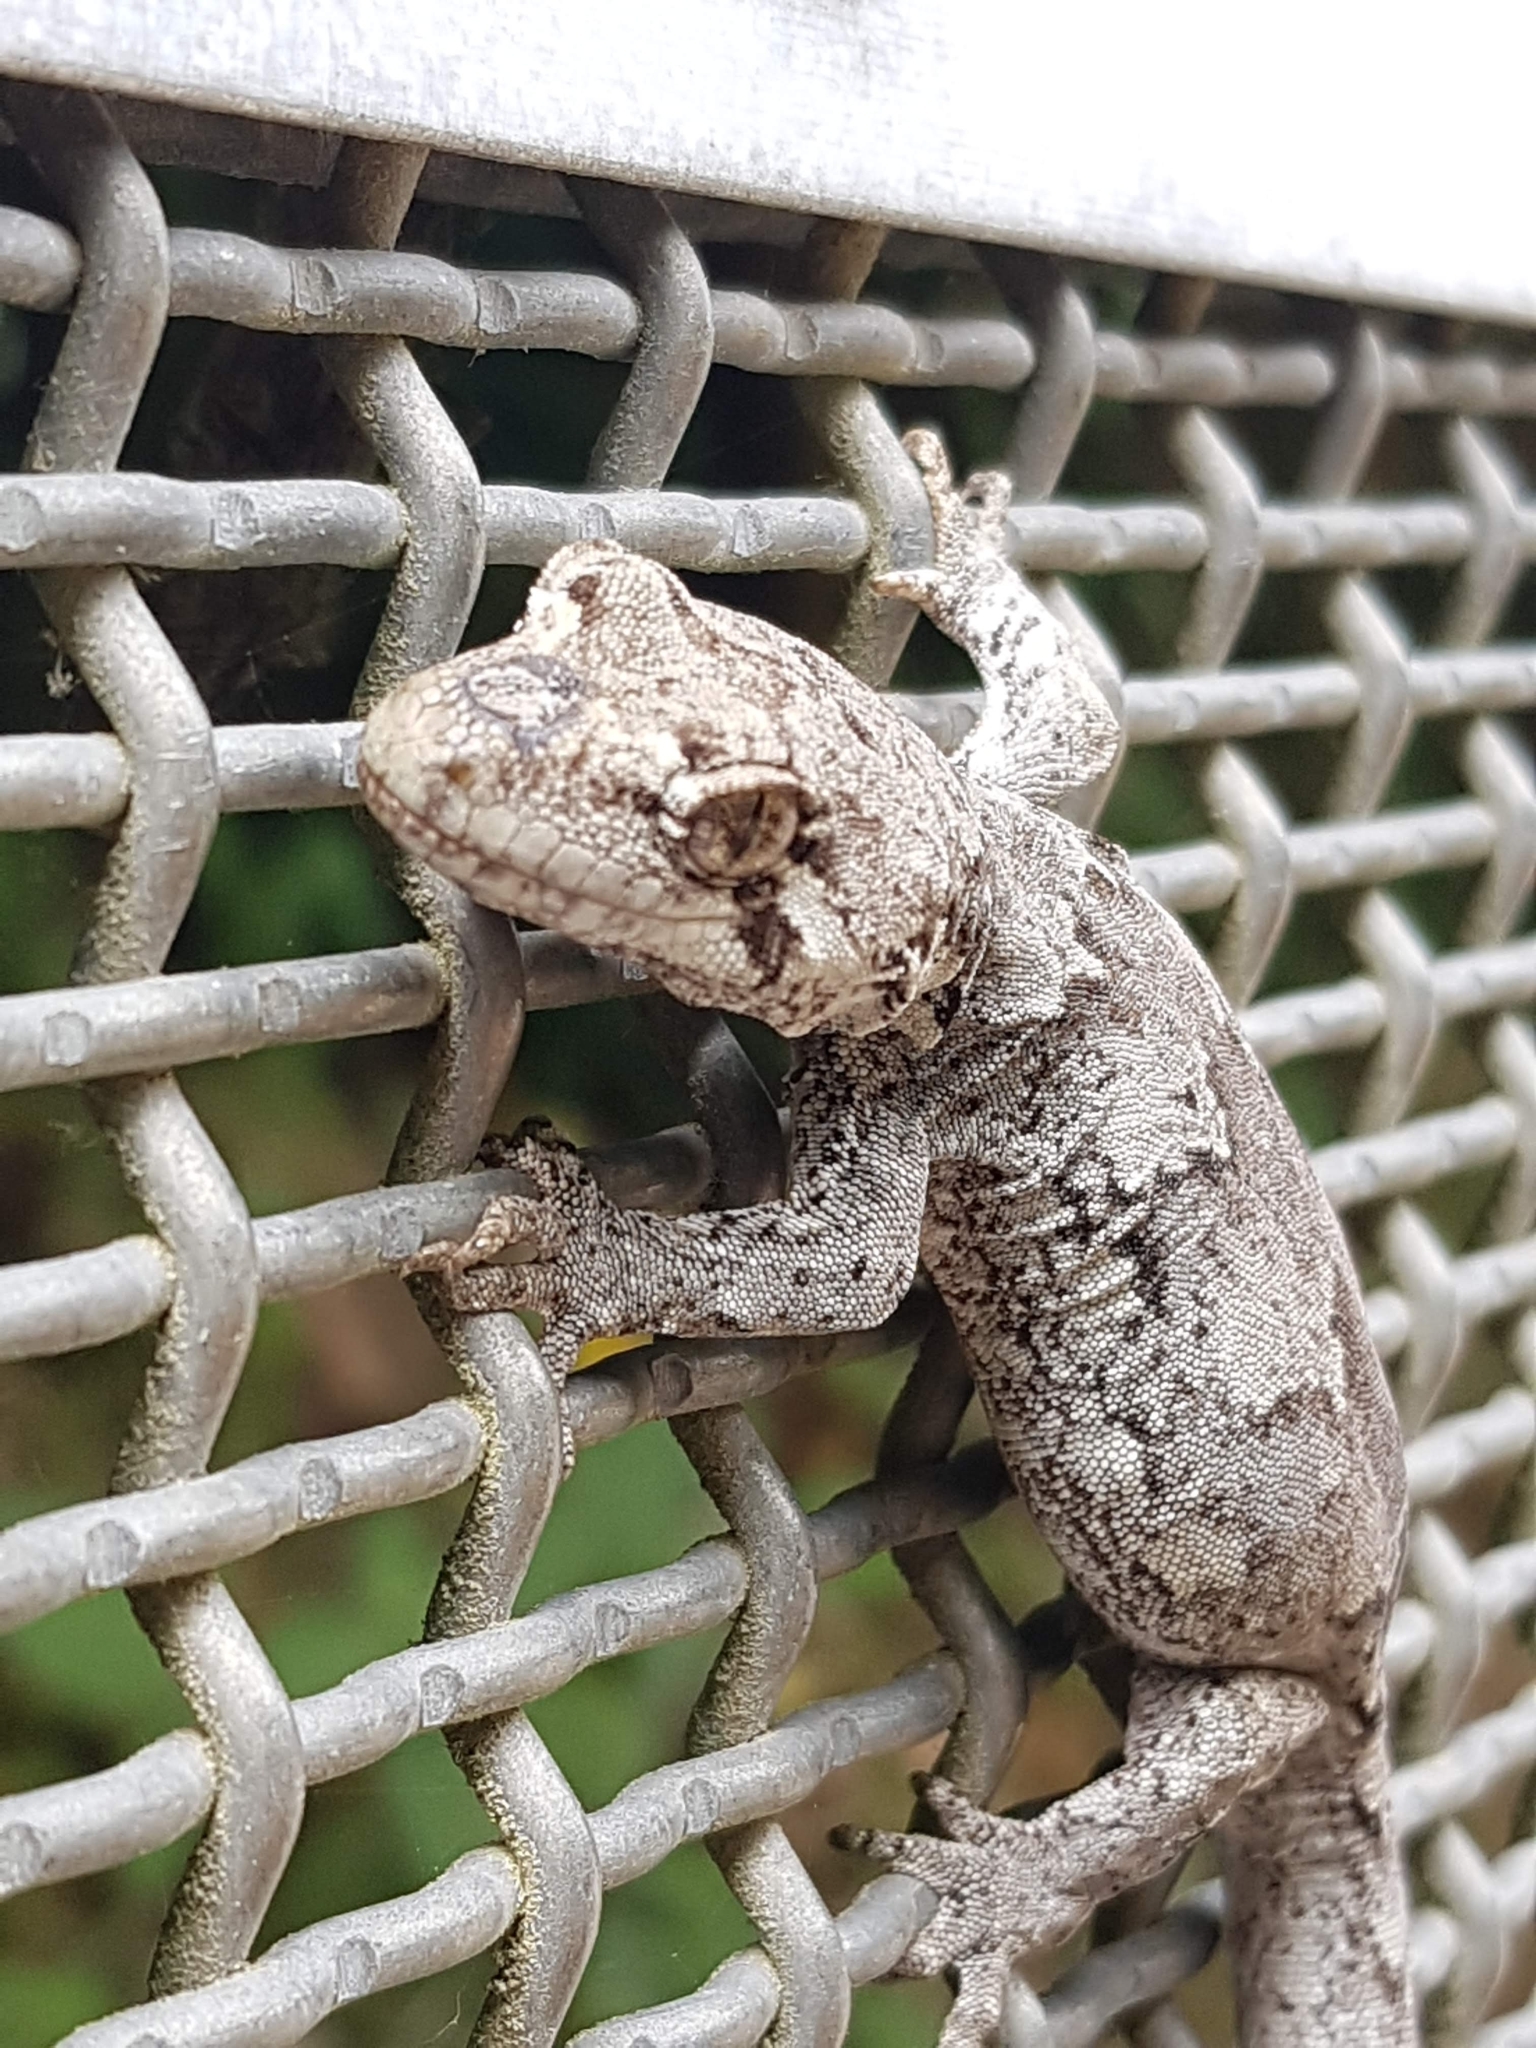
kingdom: Animalia
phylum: Chordata
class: Squamata
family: Diplodactylidae
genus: Mokopirirakau
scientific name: Mokopirirakau
